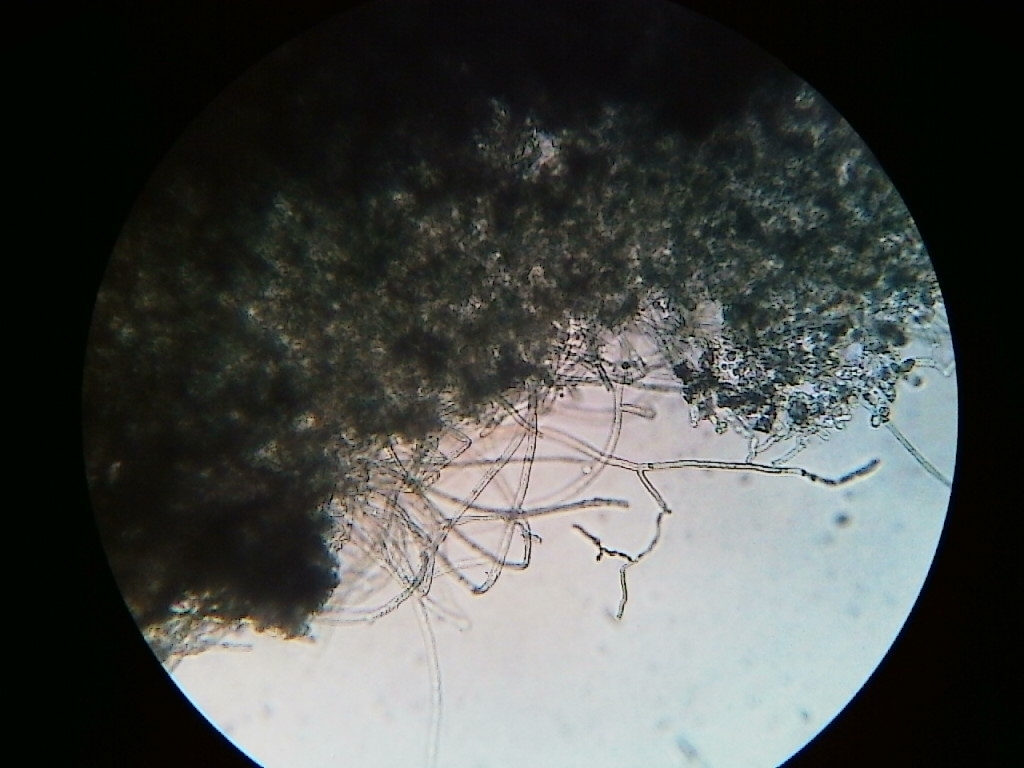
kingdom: Fungi
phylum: Basidiomycota
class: Agaricomycetes
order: Atheliales
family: Atheliaceae
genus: Byssocorticium
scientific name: Byssocorticium atrovirens
